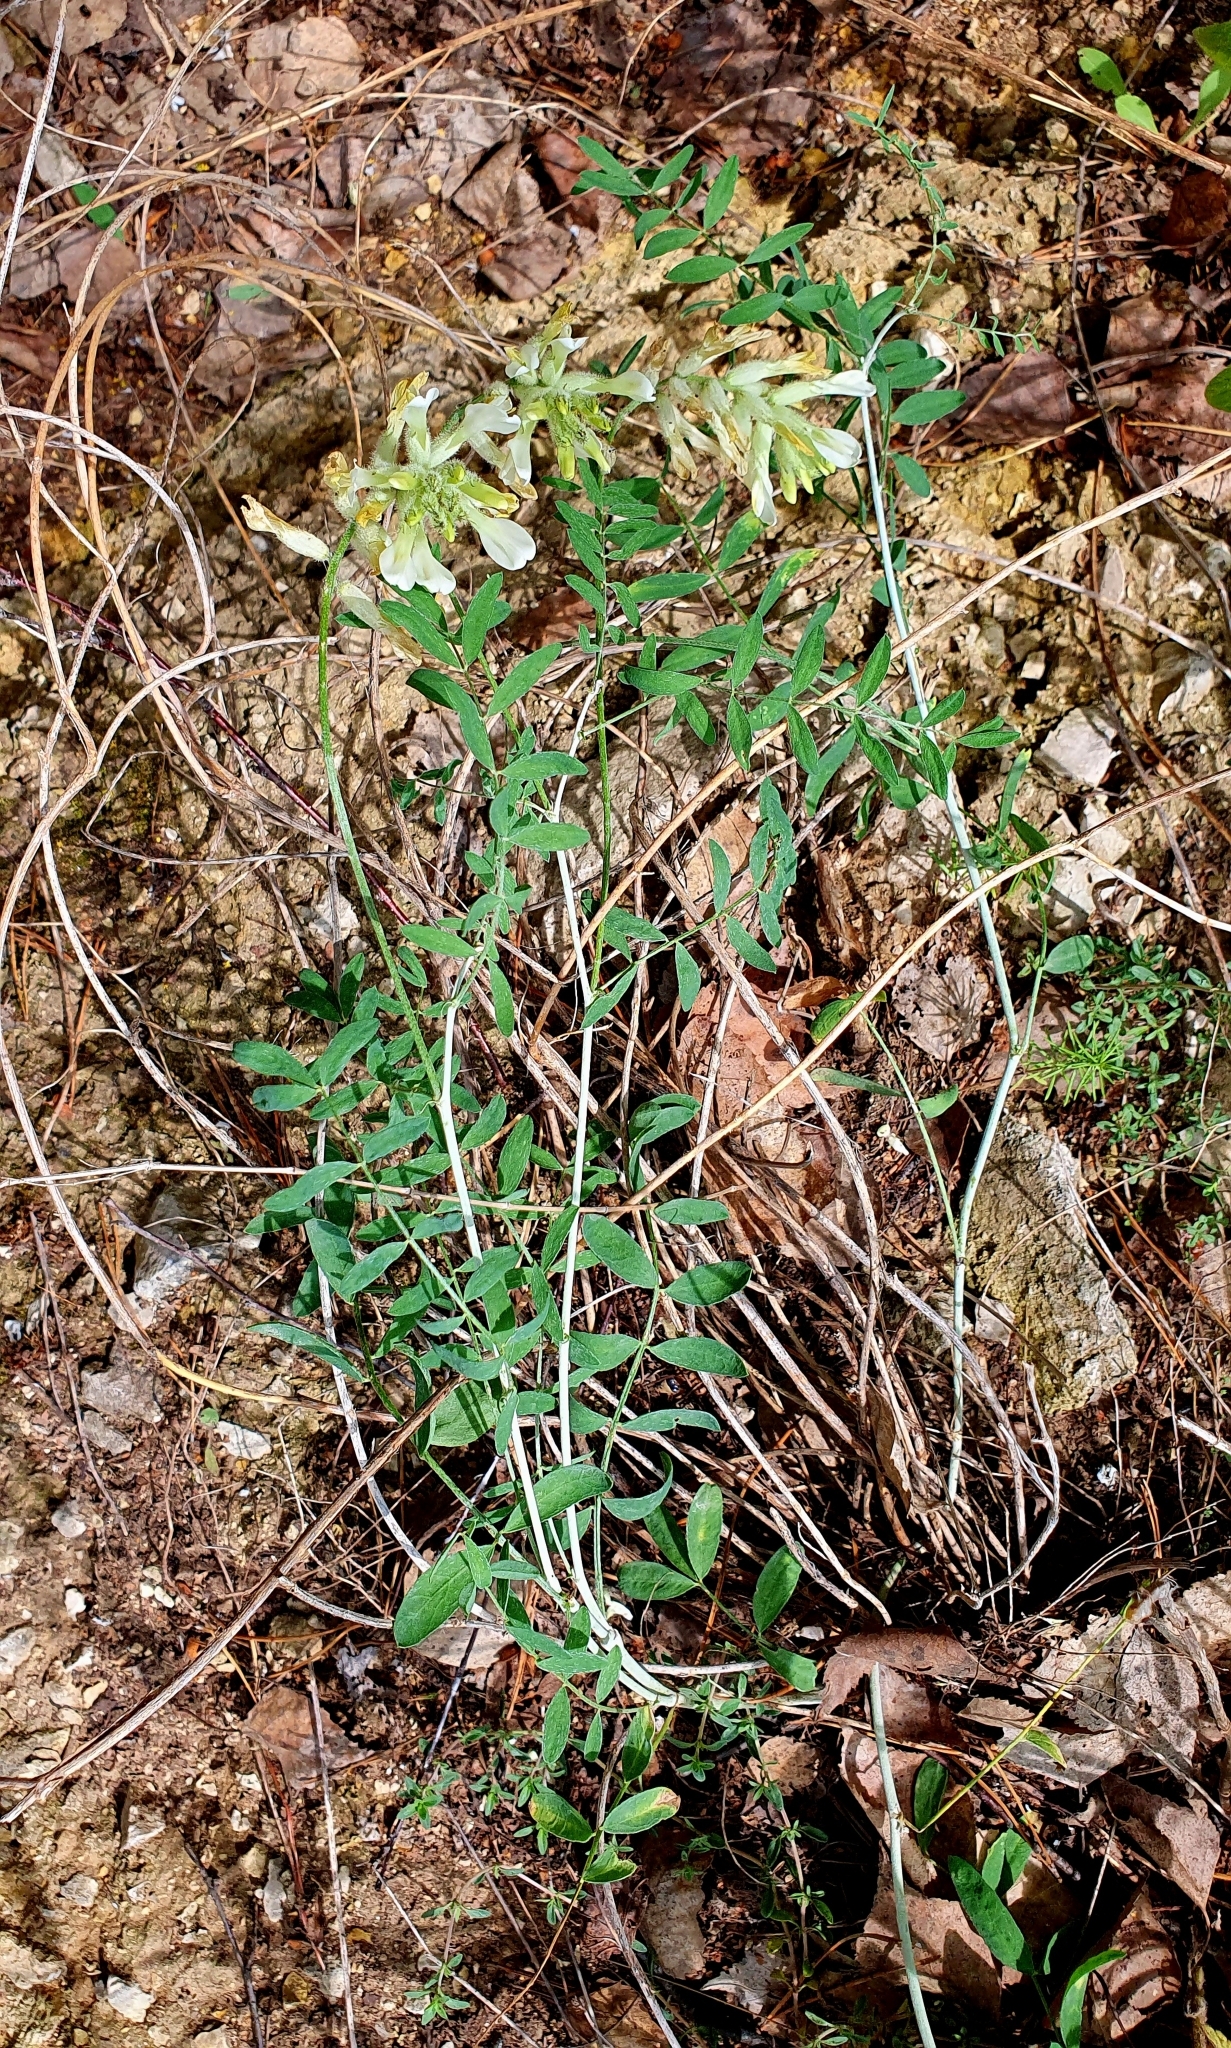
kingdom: Plantae
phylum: Tracheophyta
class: Magnoliopsida
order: Fabales
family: Fabaceae
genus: Astragalus
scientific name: Astragalus zingeri
